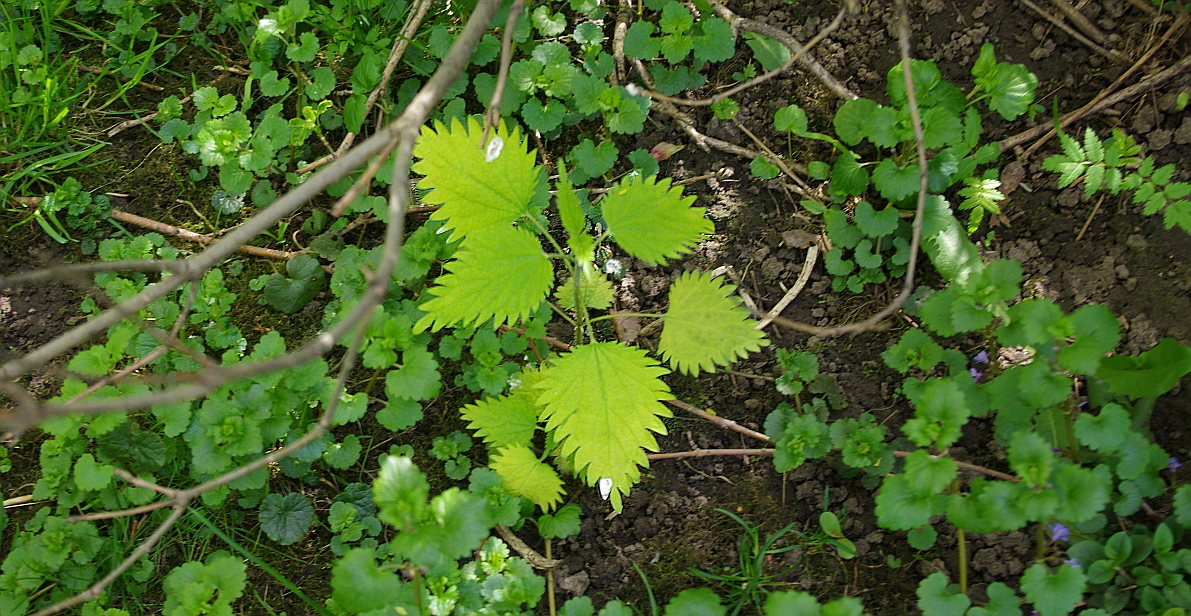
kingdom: Plantae
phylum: Tracheophyta
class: Magnoliopsida
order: Rosales
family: Urticaceae
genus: Urtica
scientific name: Urtica dioica
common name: Common nettle
